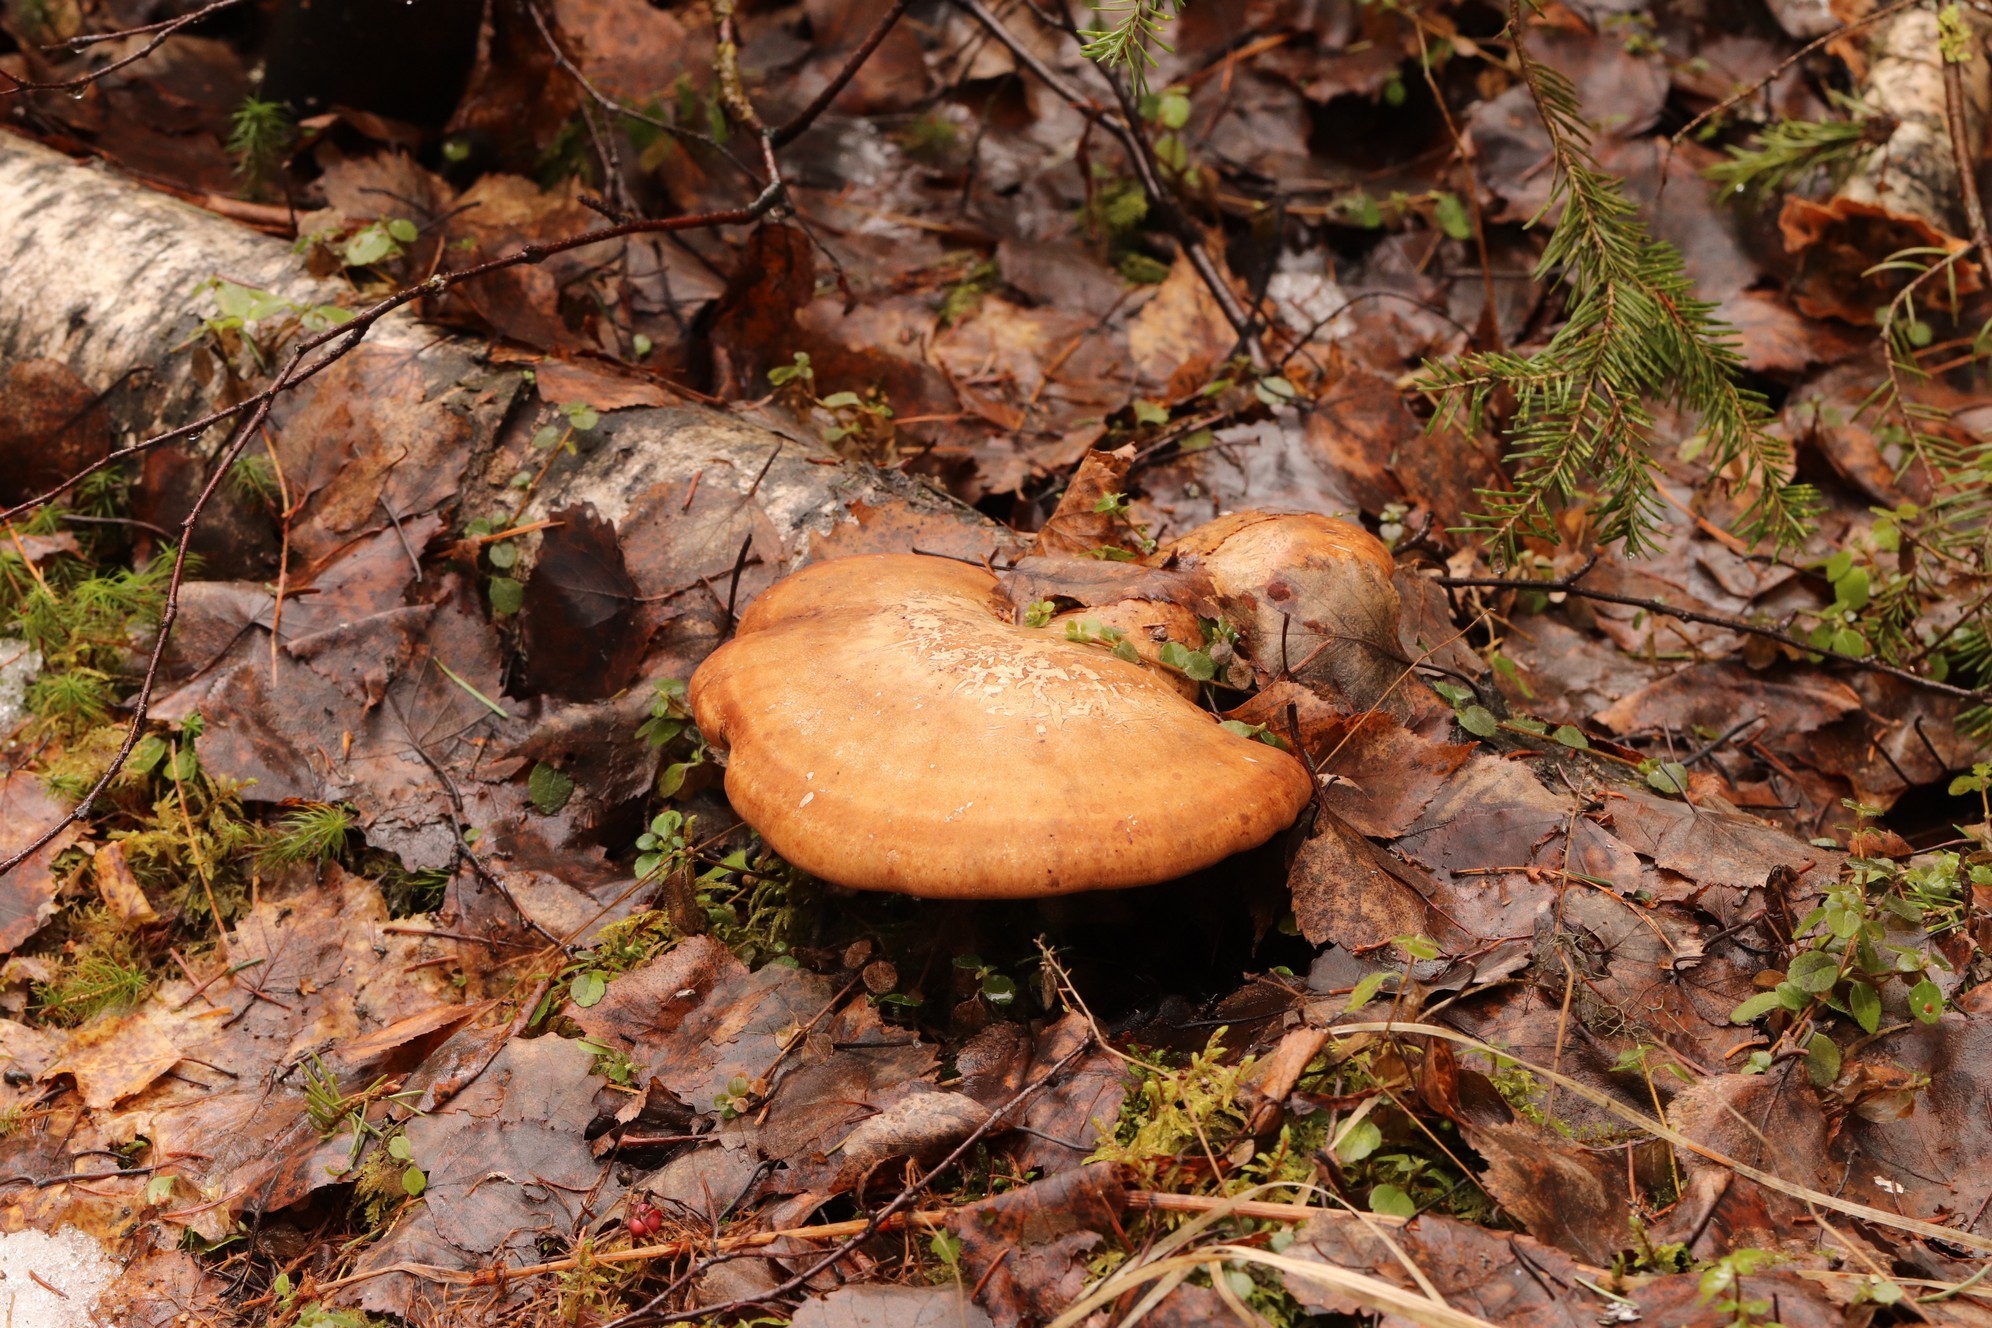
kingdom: Fungi
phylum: Basidiomycota
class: Agaricomycetes
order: Polyporales
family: Fomitopsidaceae
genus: Fomitopsis
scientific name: Fomitopsis betulina
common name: Birch polypore
